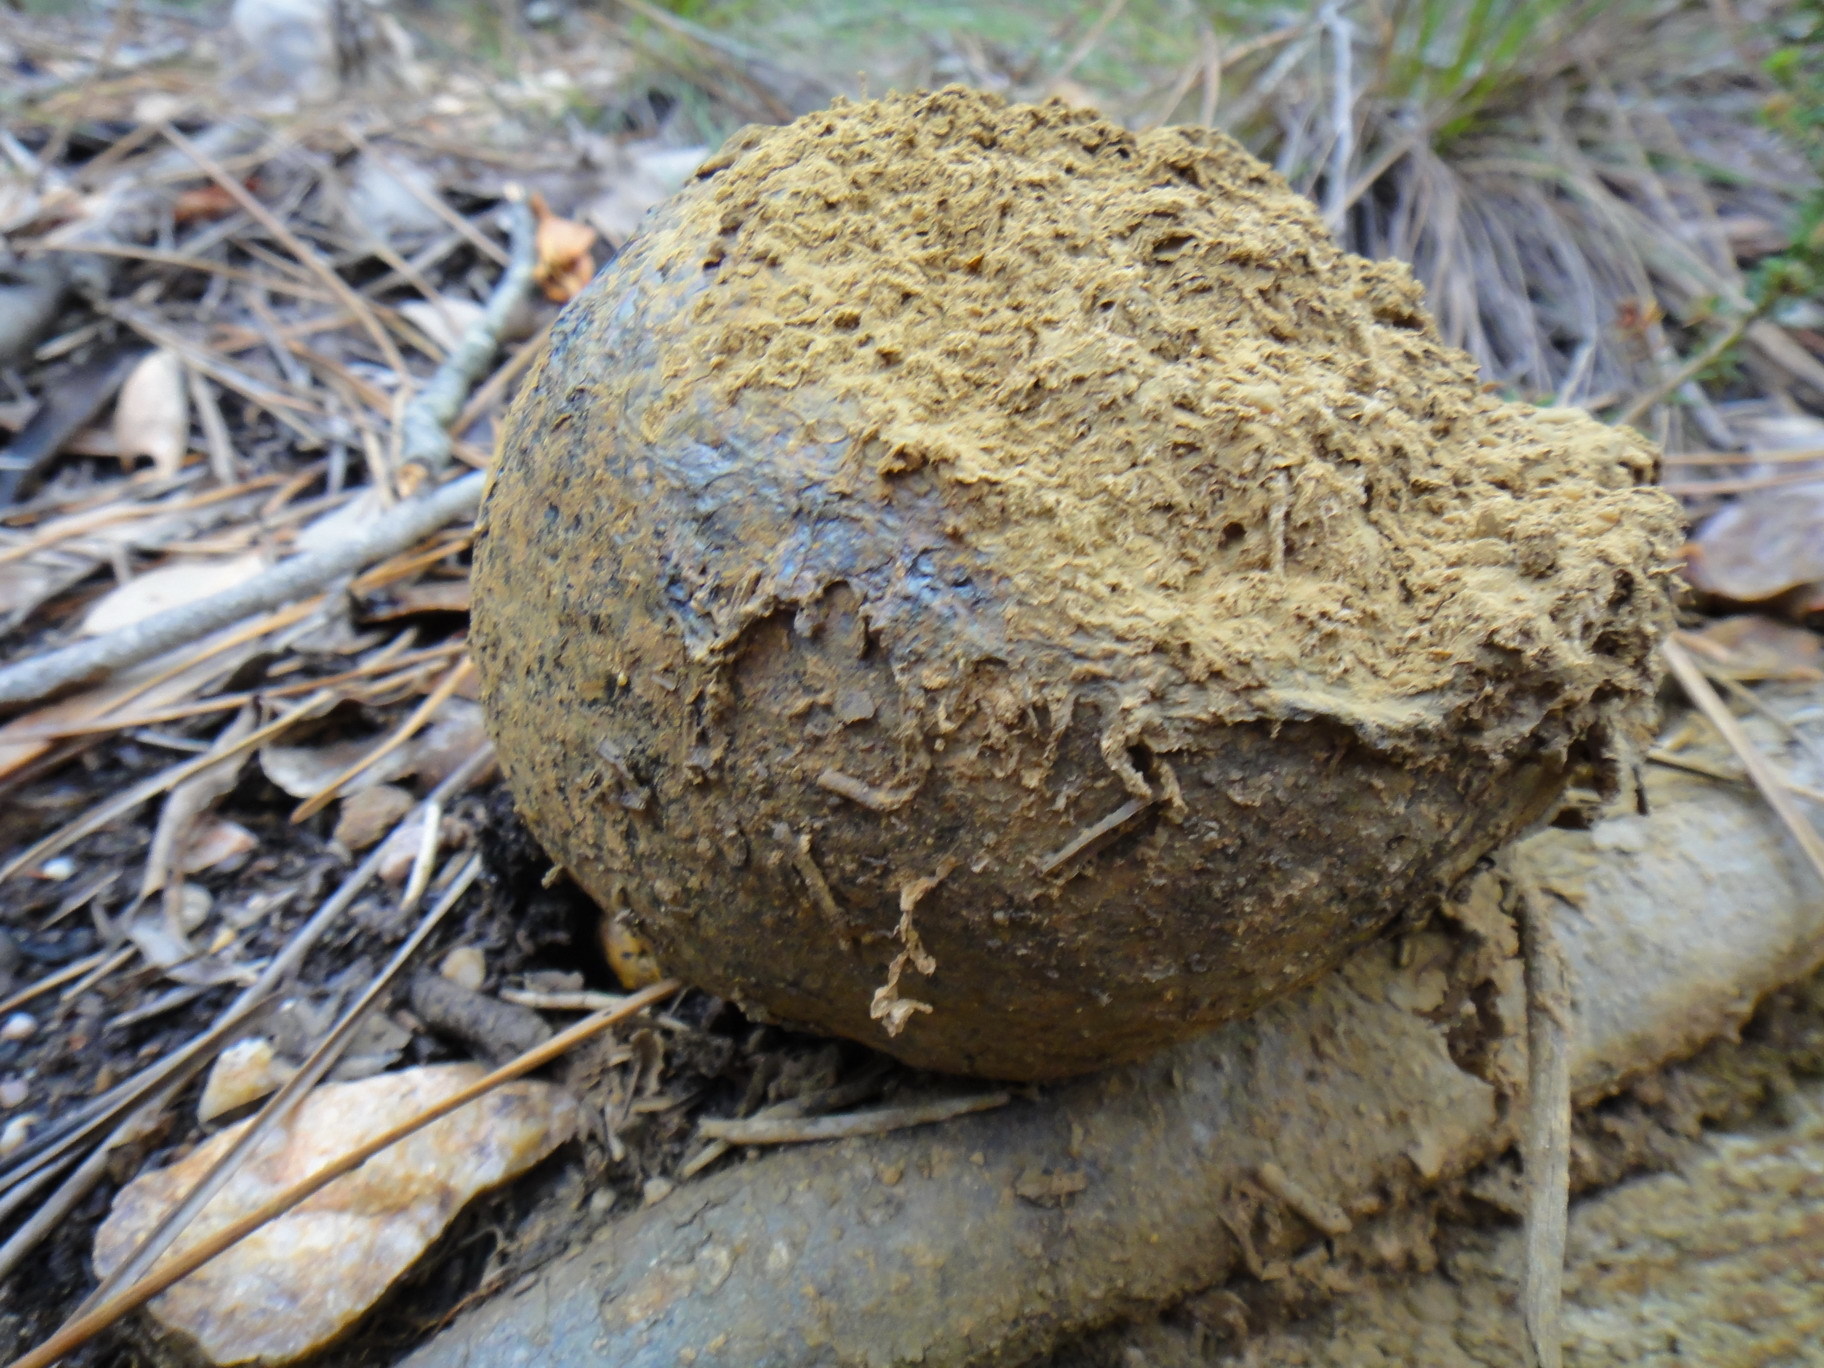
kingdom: Fungi
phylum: Basidiomycota
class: Agaricomycetes
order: Boletales
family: Sclerodermataceae
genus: Pisolithus
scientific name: Pisolithus arhizus
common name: Dyeball
